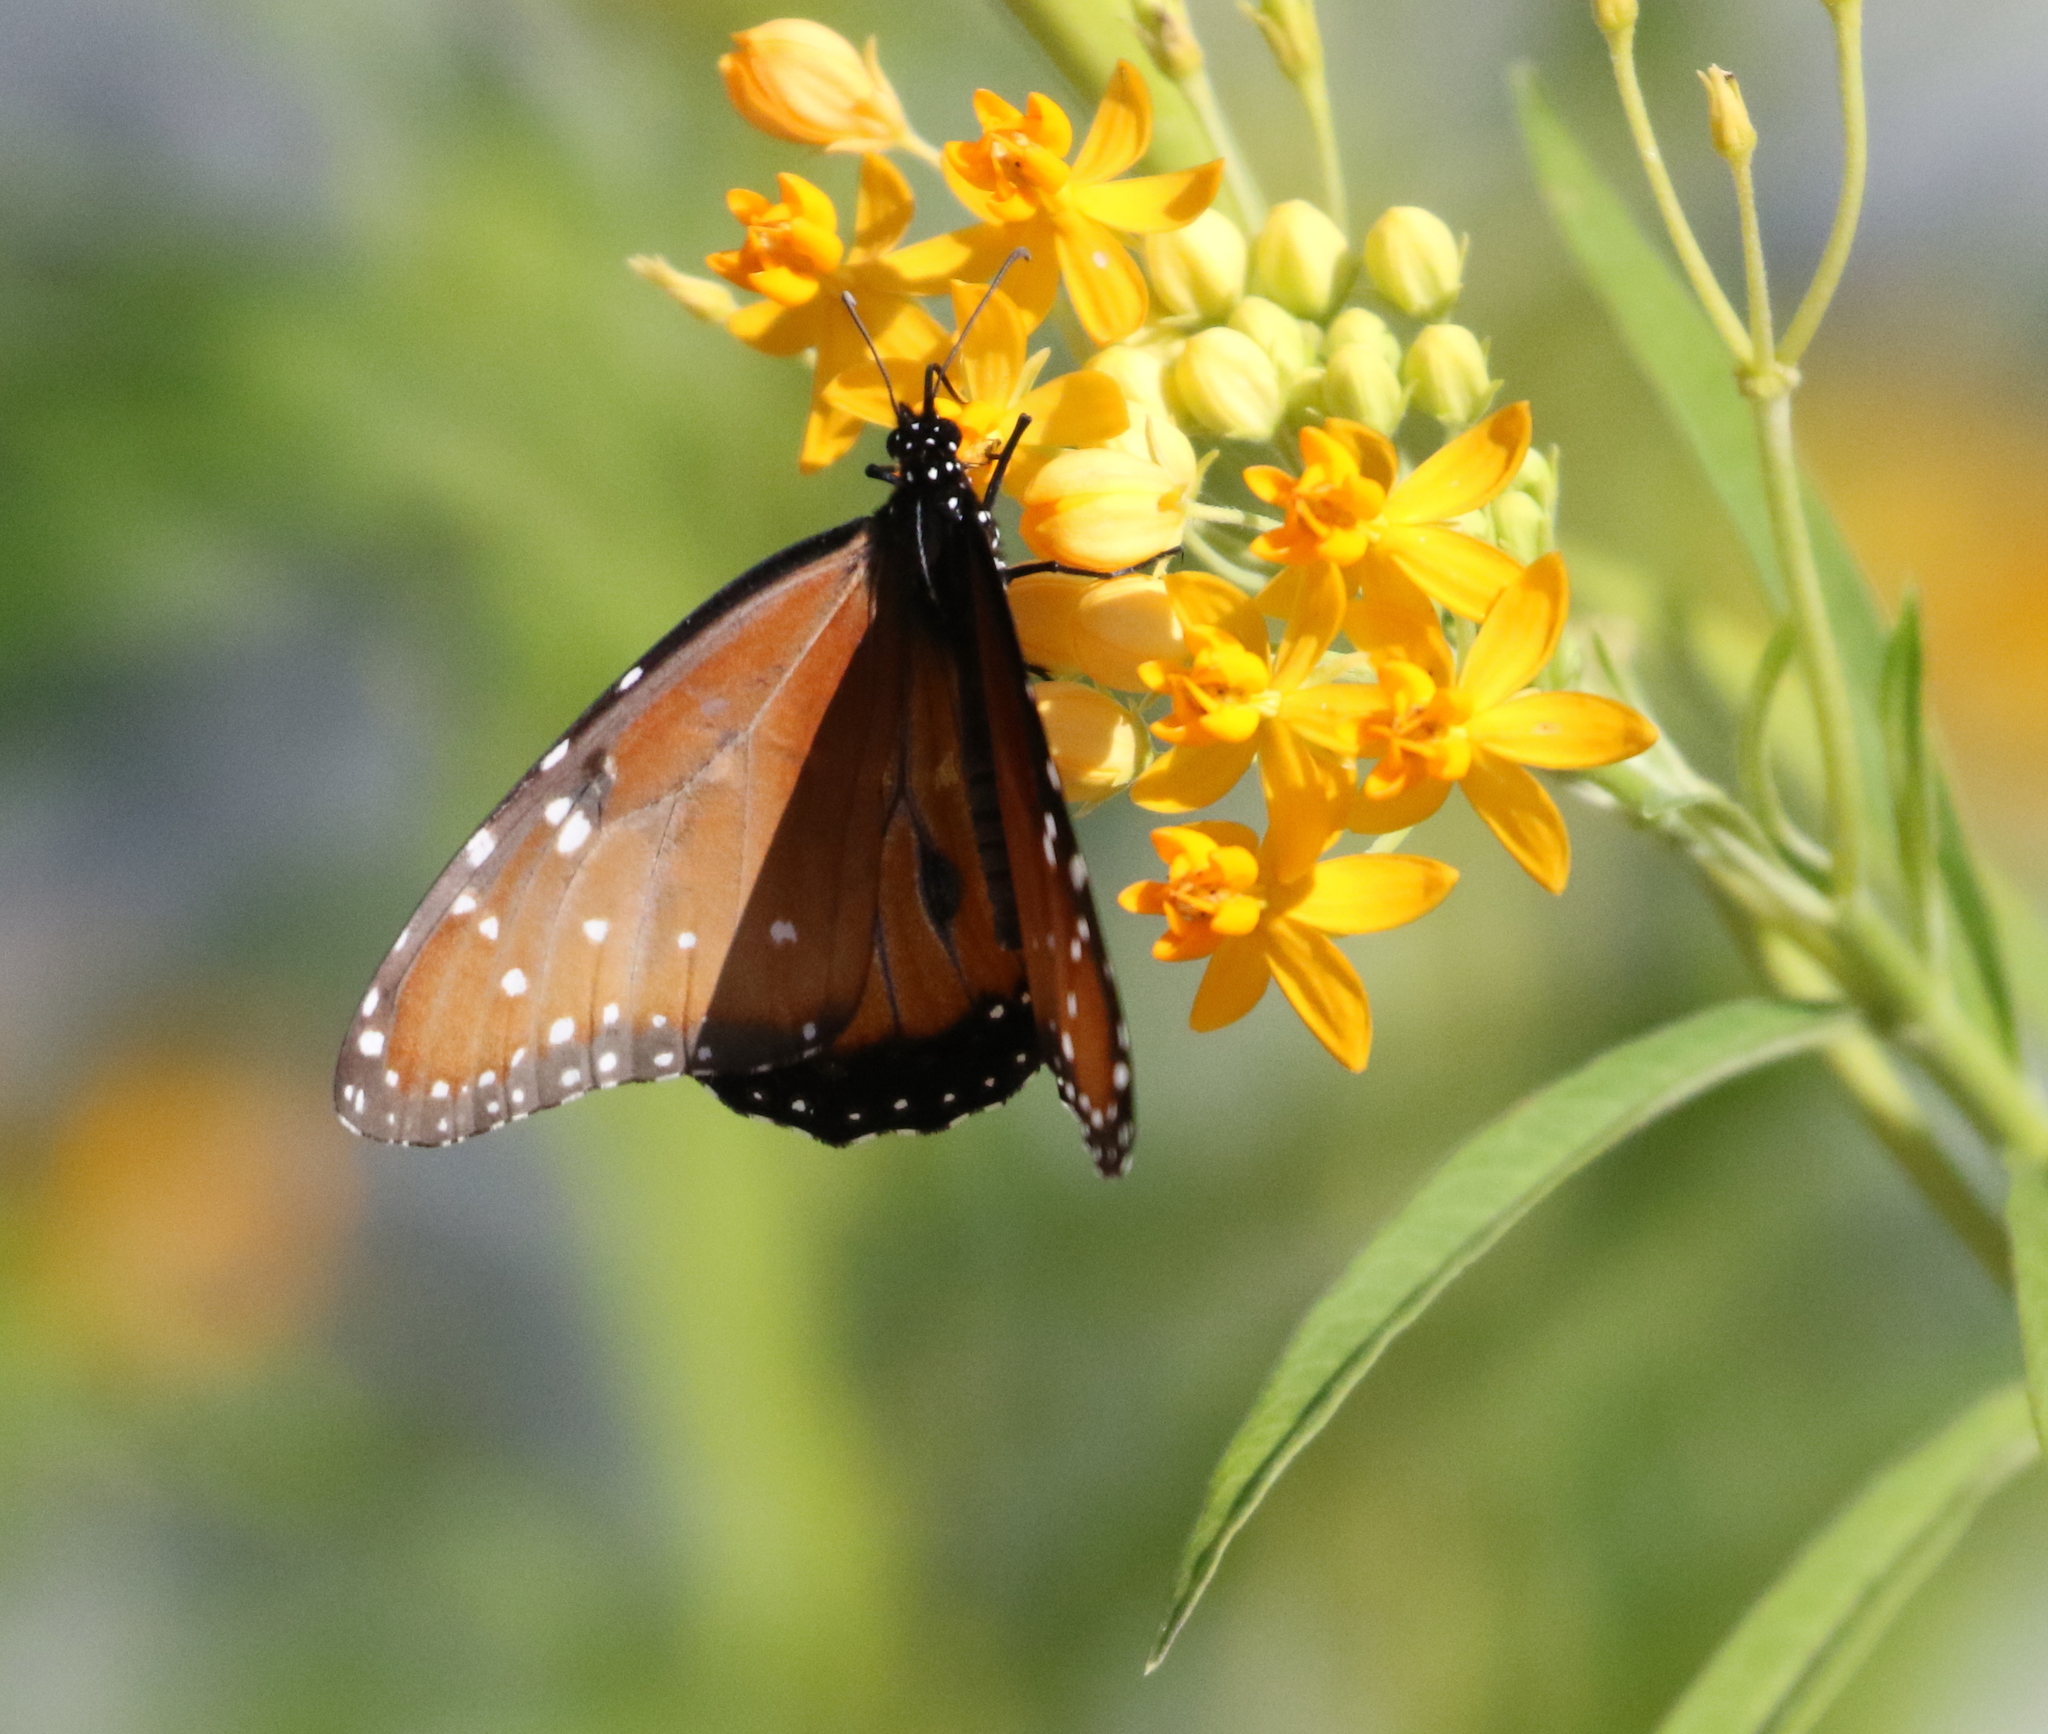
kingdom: Animalia
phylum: Arthropoda
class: Insecta
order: Lepidoptera
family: Nymphalidae
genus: Danaus
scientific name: Danaus gilippus
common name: Queen
